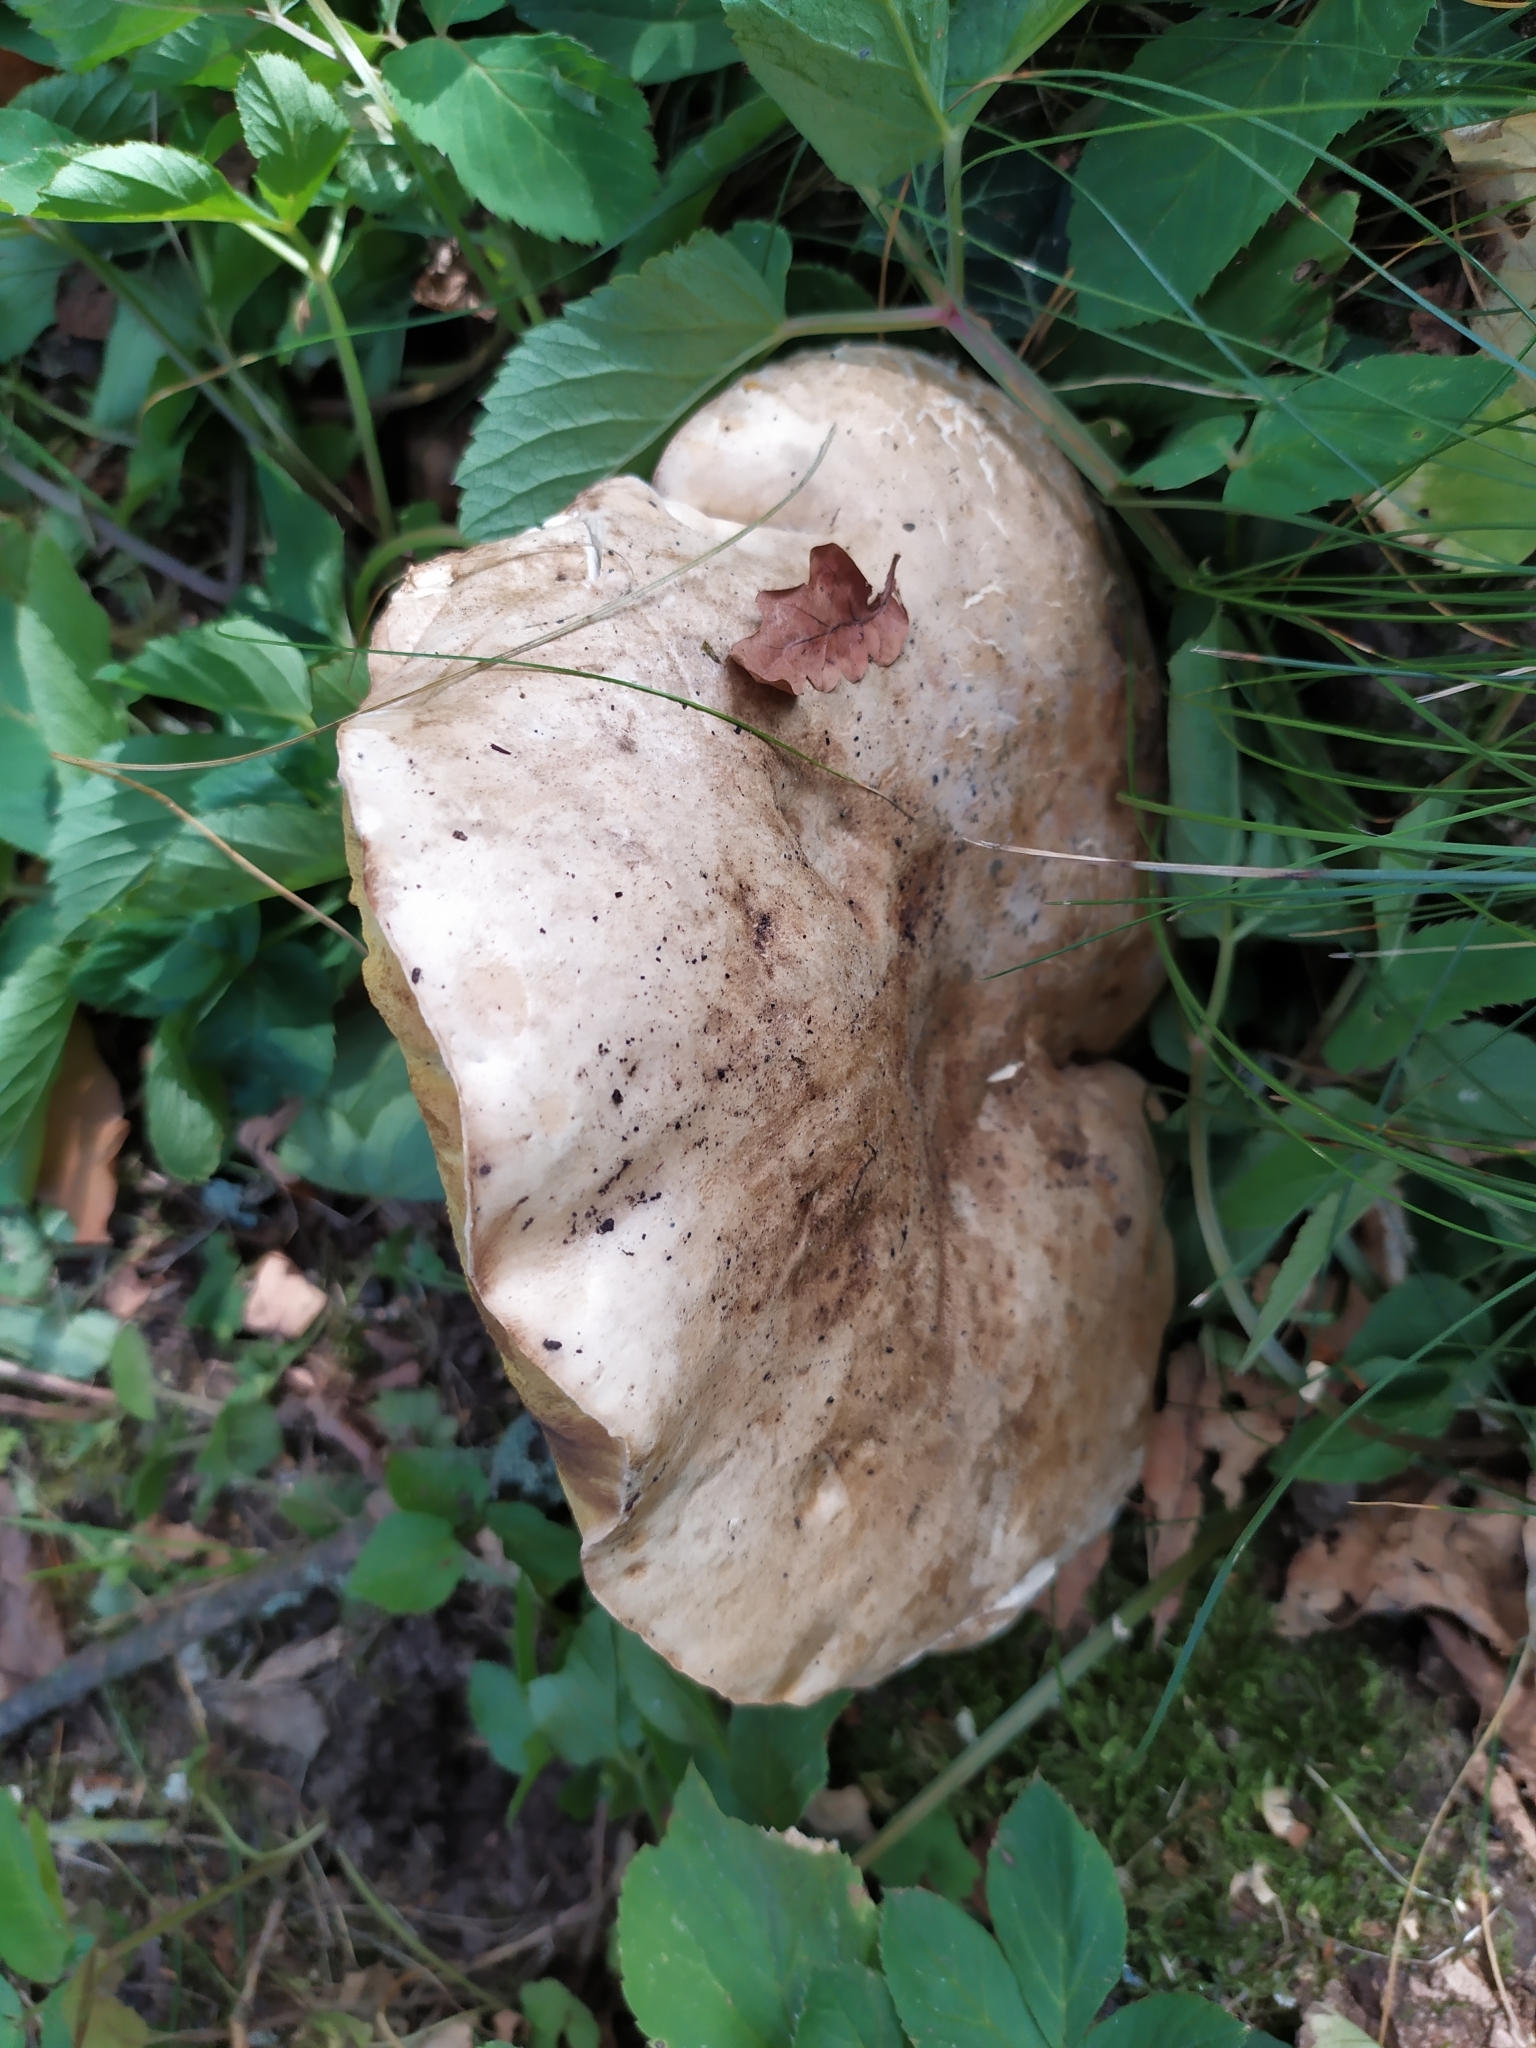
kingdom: Fungi
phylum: Basidiomycota
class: Agaricomycetes
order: Boletales
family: Boletaceae
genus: Caloboletus
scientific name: Caloboletus radicans
